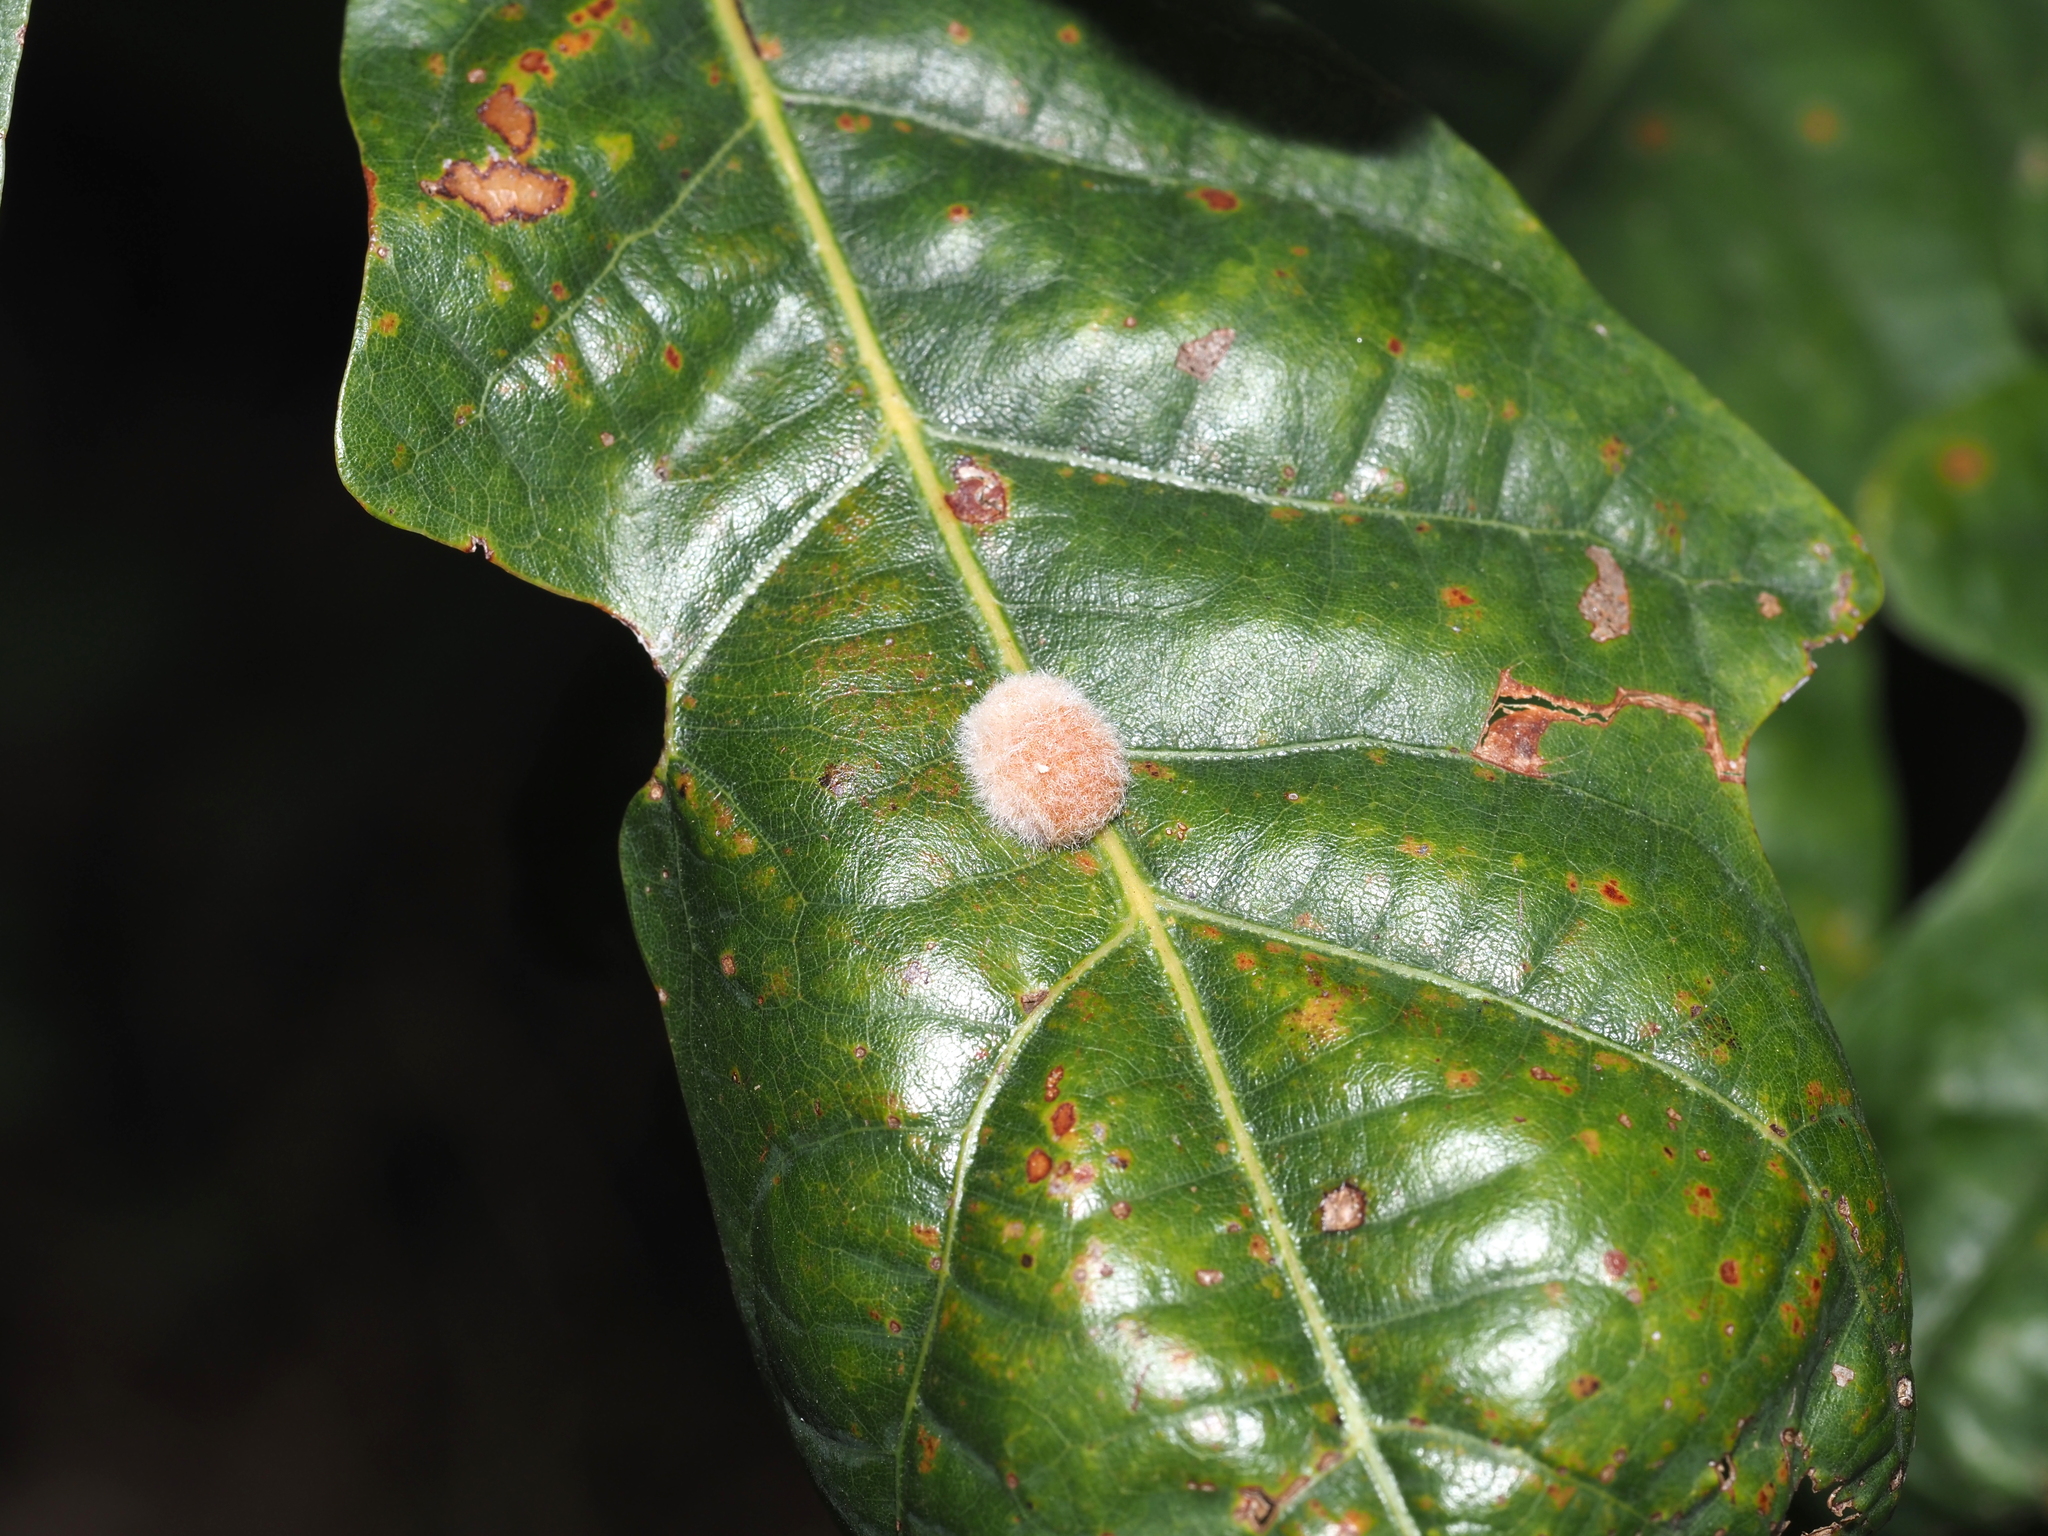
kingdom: Animalia
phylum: Arthropoda
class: Insecta
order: Hymenoptera
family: Cynipidae
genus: Andricus
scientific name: Andricus quercusflocci
